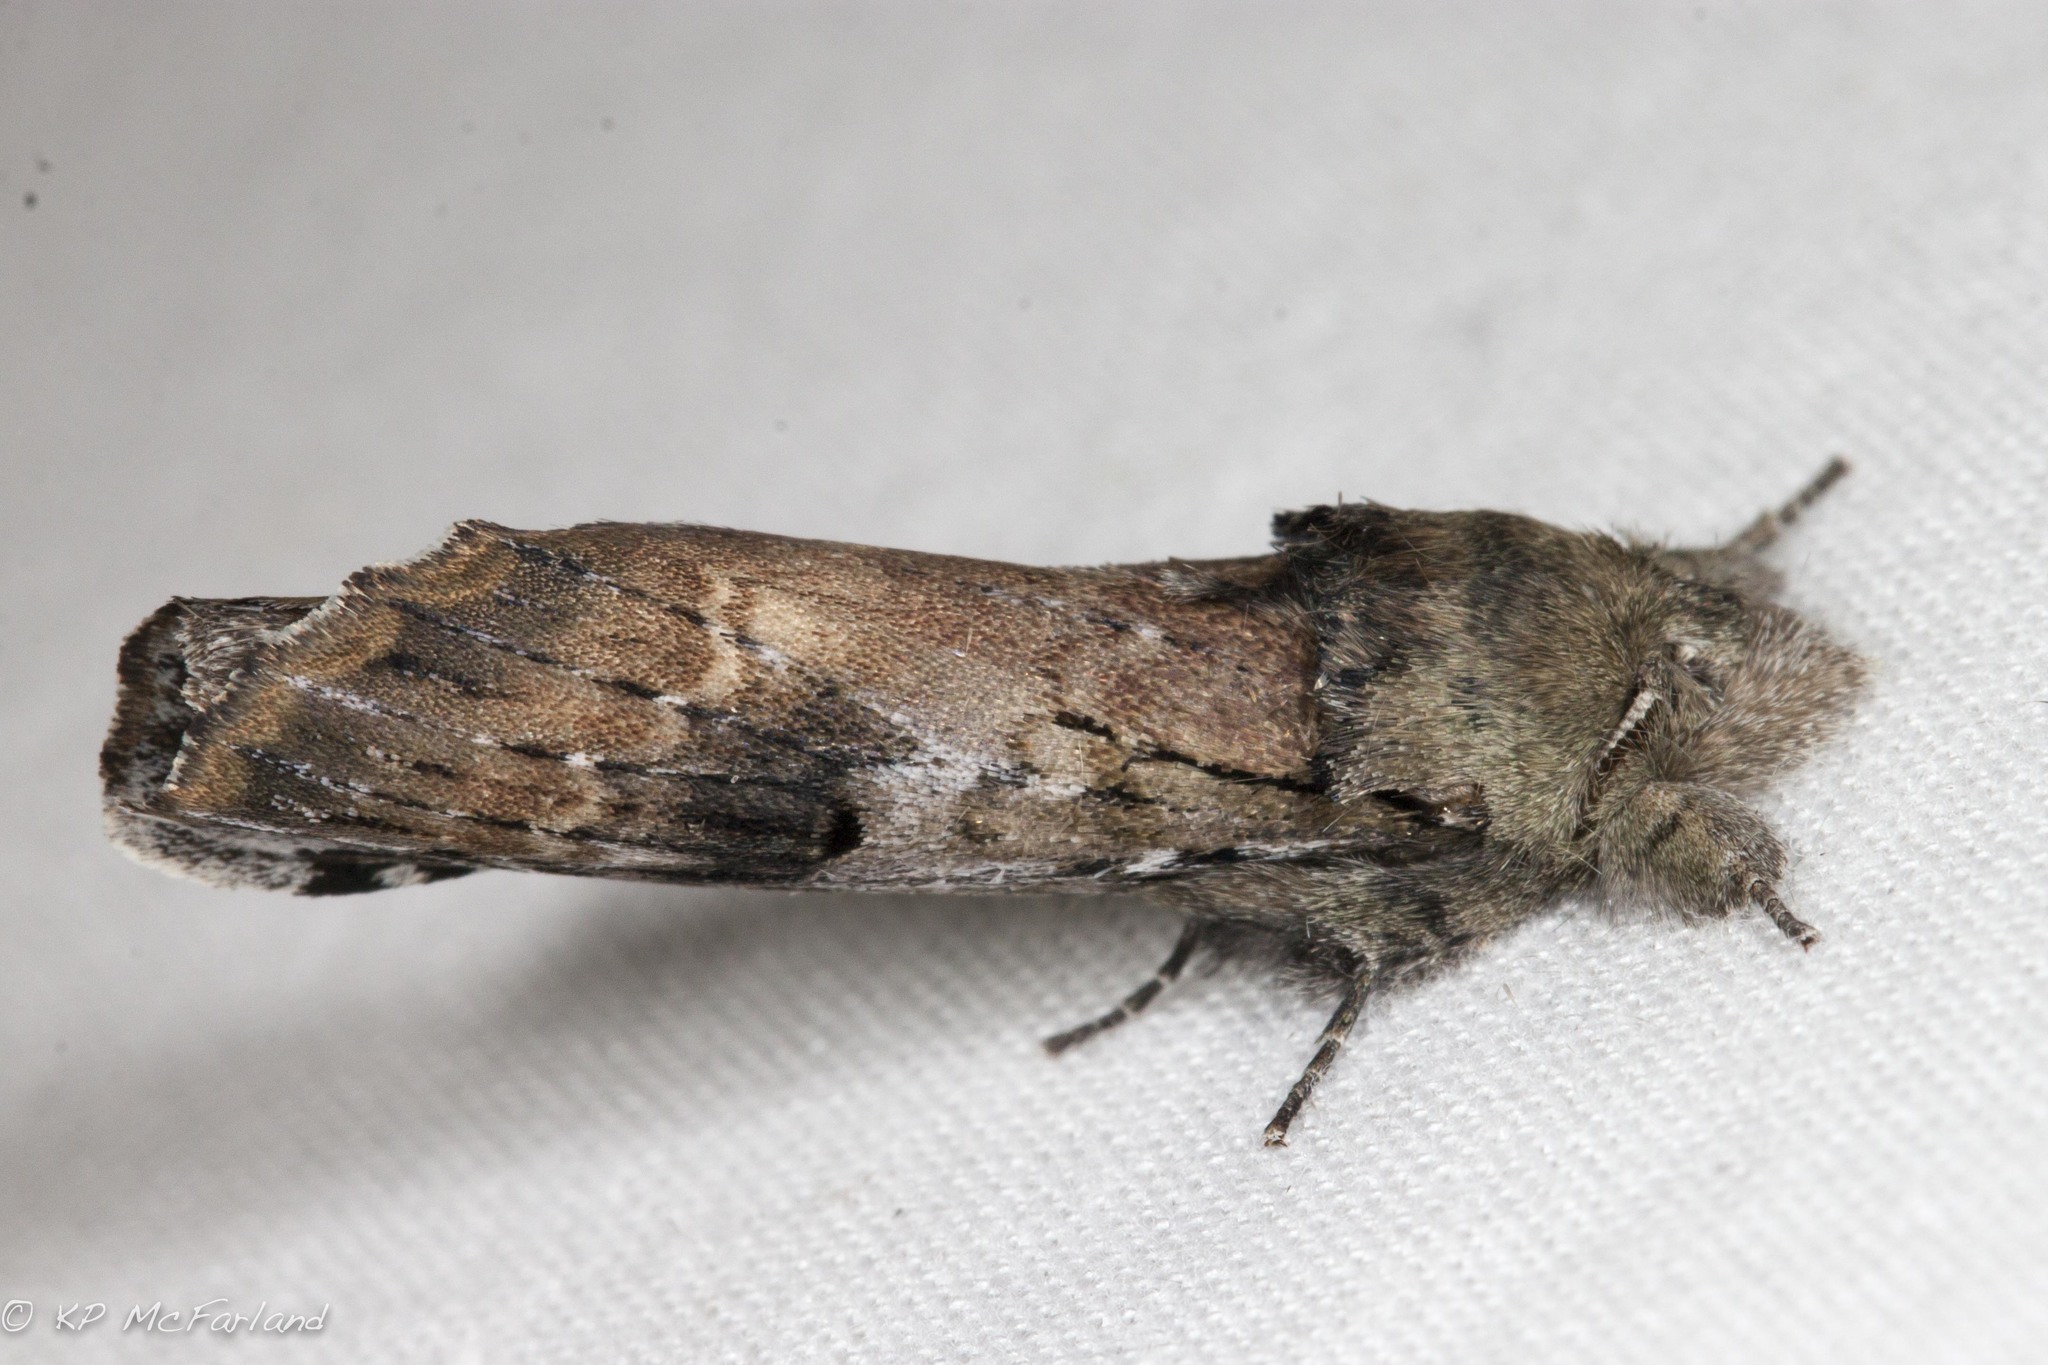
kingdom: Animalia
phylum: Arthropoda
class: Insecta
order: Lepidoptera
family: Notodontidae
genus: Schizura
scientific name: Schizura
